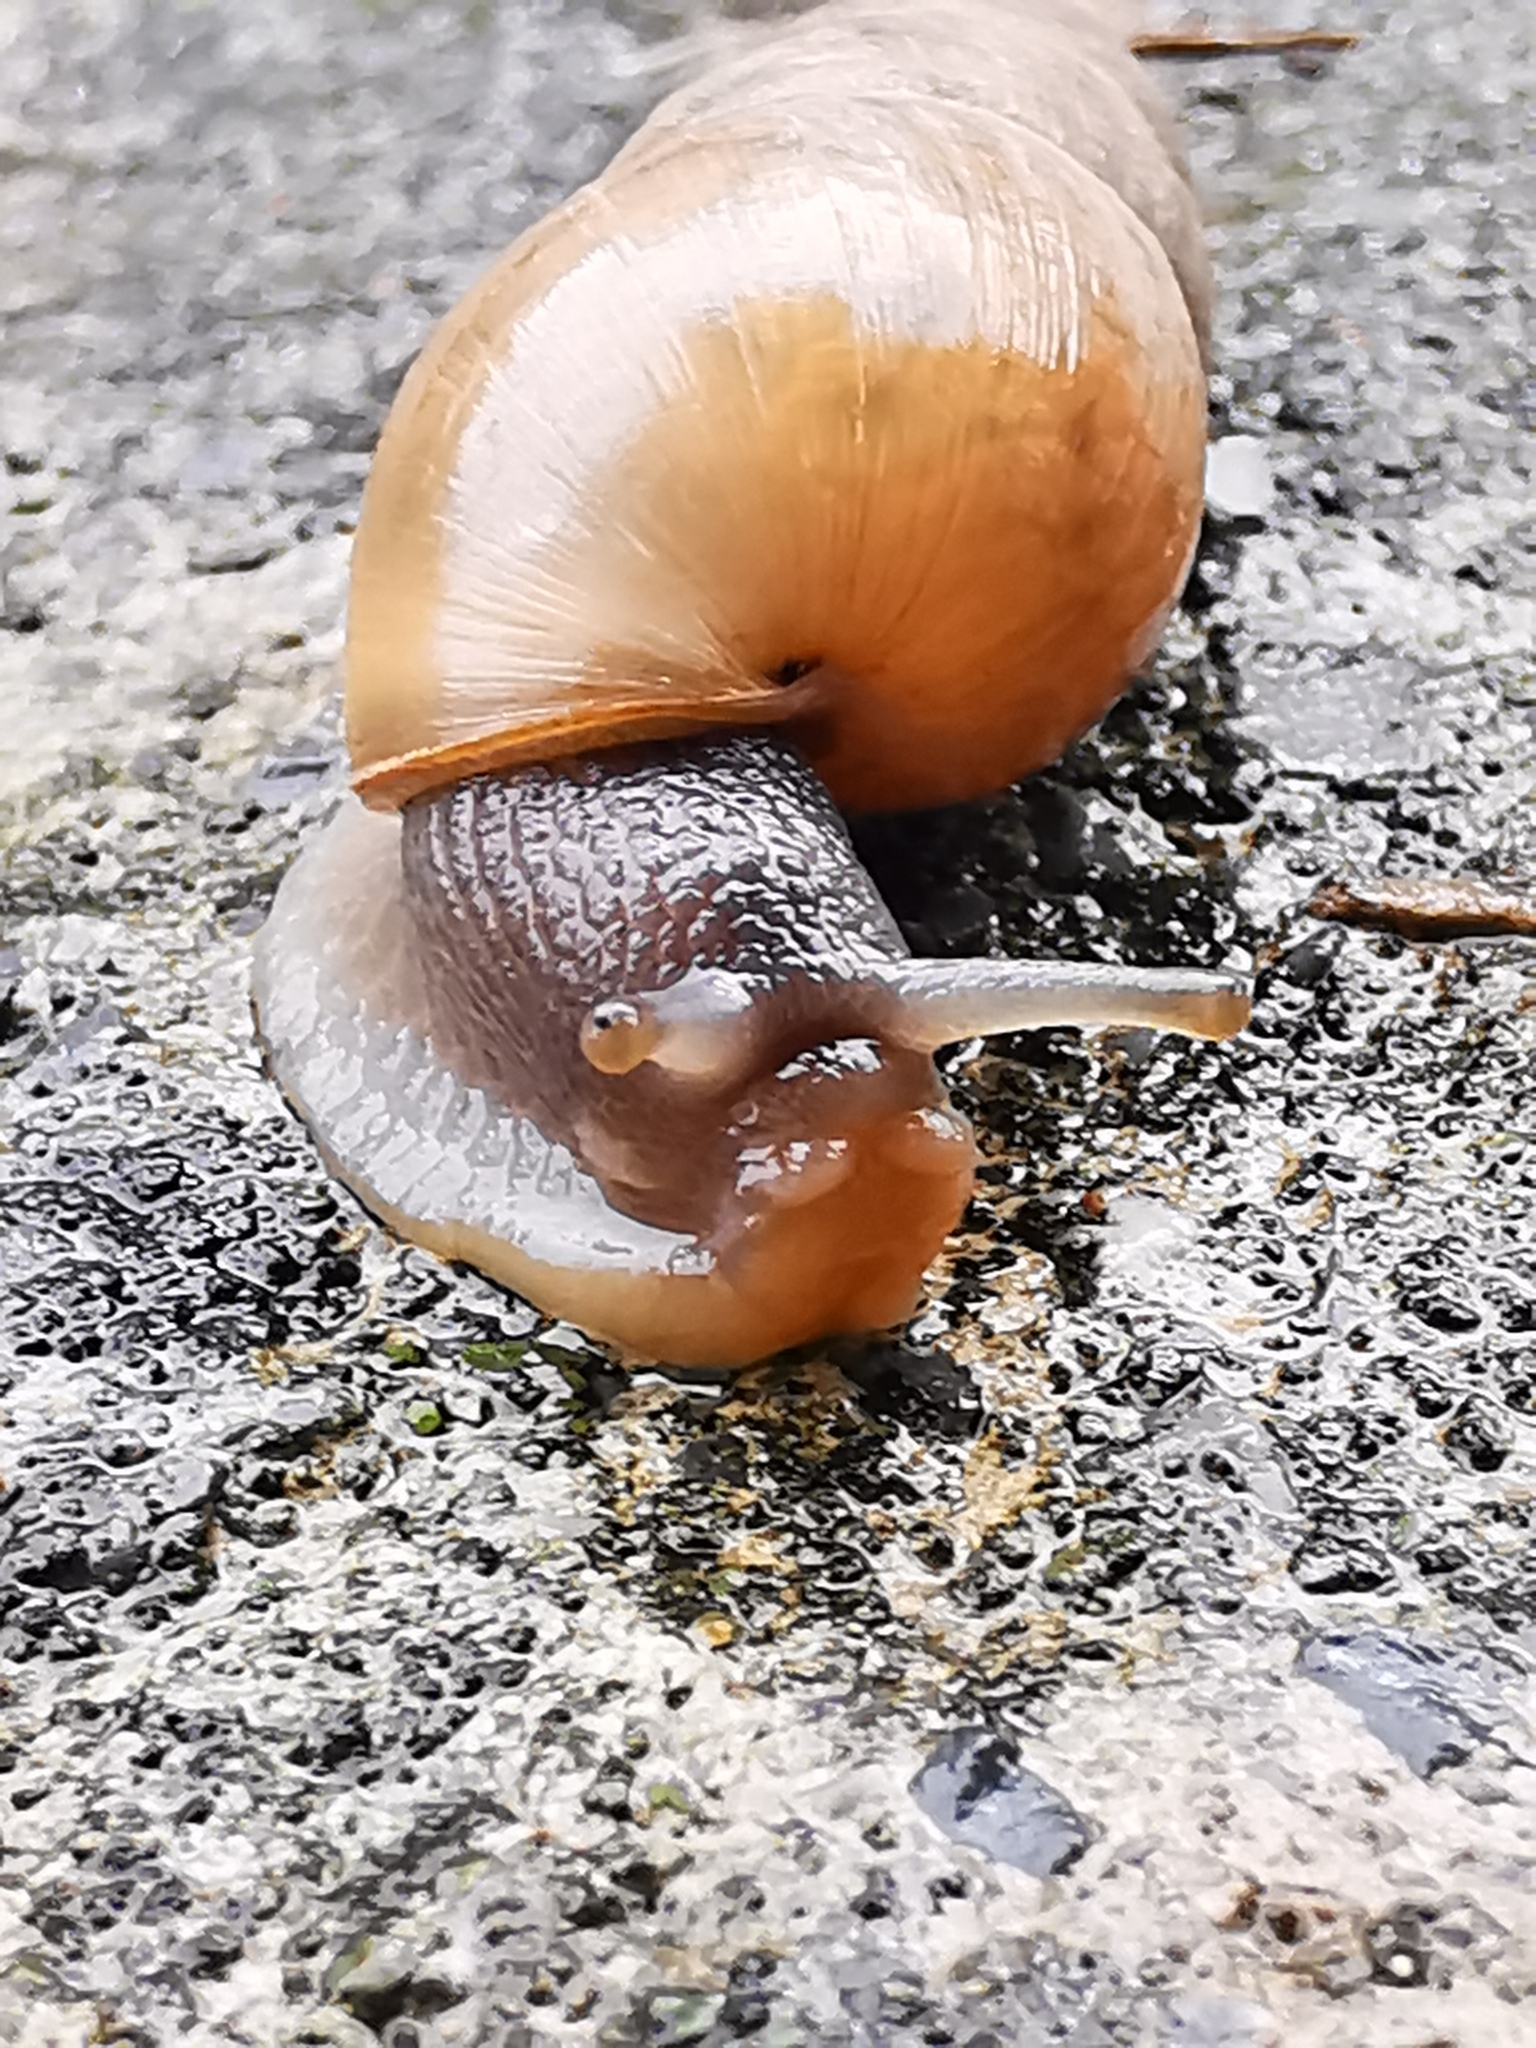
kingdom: Animalia
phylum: Mollusca
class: Gastropoda
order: Stylommatophora
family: Achatinidae
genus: Rumina
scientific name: Rumina decollata
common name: Decollate snail
